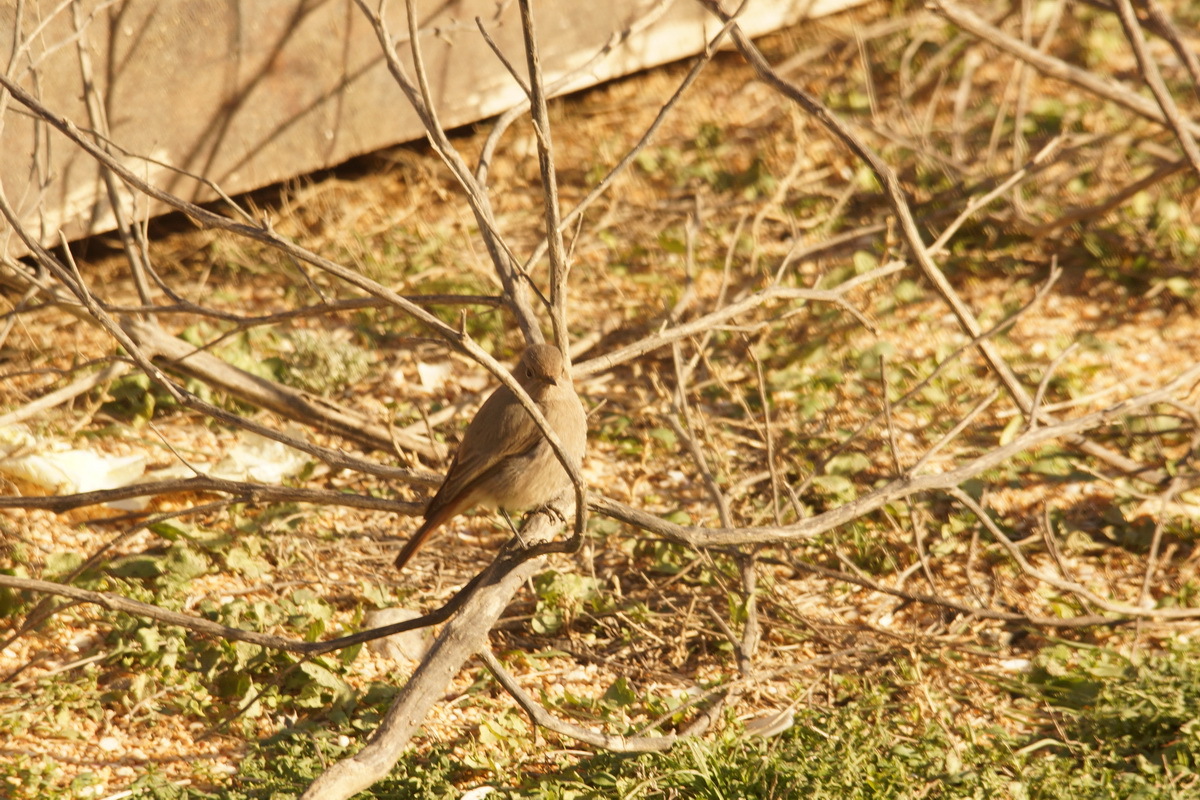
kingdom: Animalia
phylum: Chordata
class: Aves
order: Passeriformes
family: Muscicapidae
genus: Phoenicurus
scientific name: Phoenicurus ochruros
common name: Black redstart
